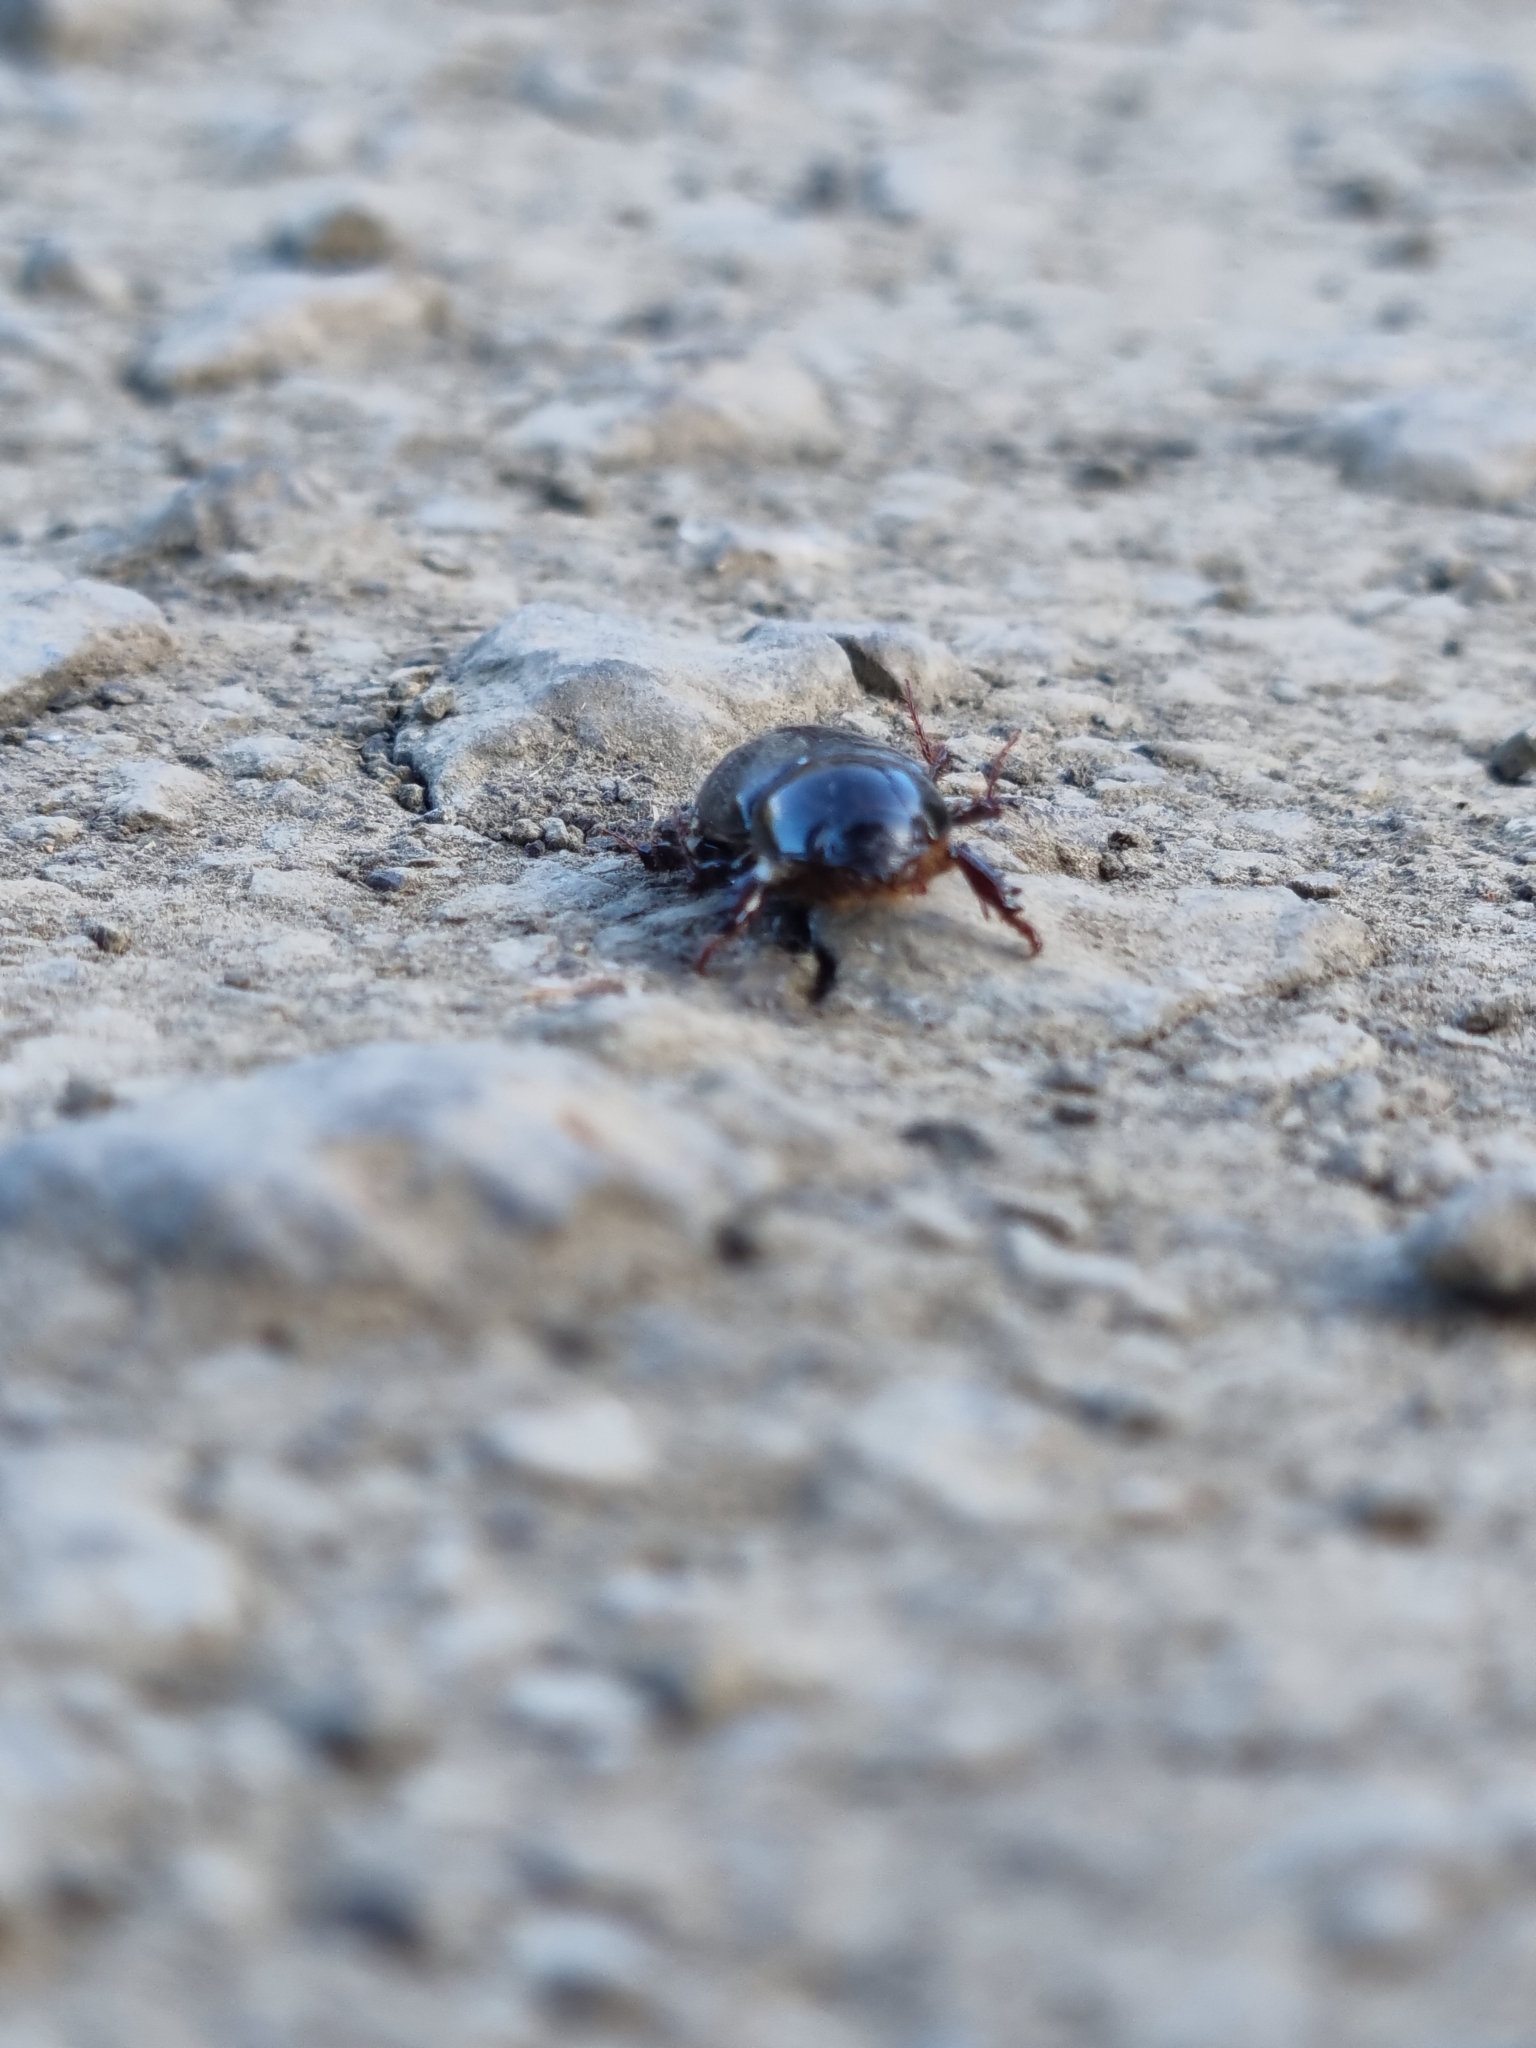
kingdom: Animalia
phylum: Arthropoda
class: Insecta
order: Coleoptera
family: Scarabaeidae
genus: Heteronychus
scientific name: Heteronychus arator
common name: African black beetle
